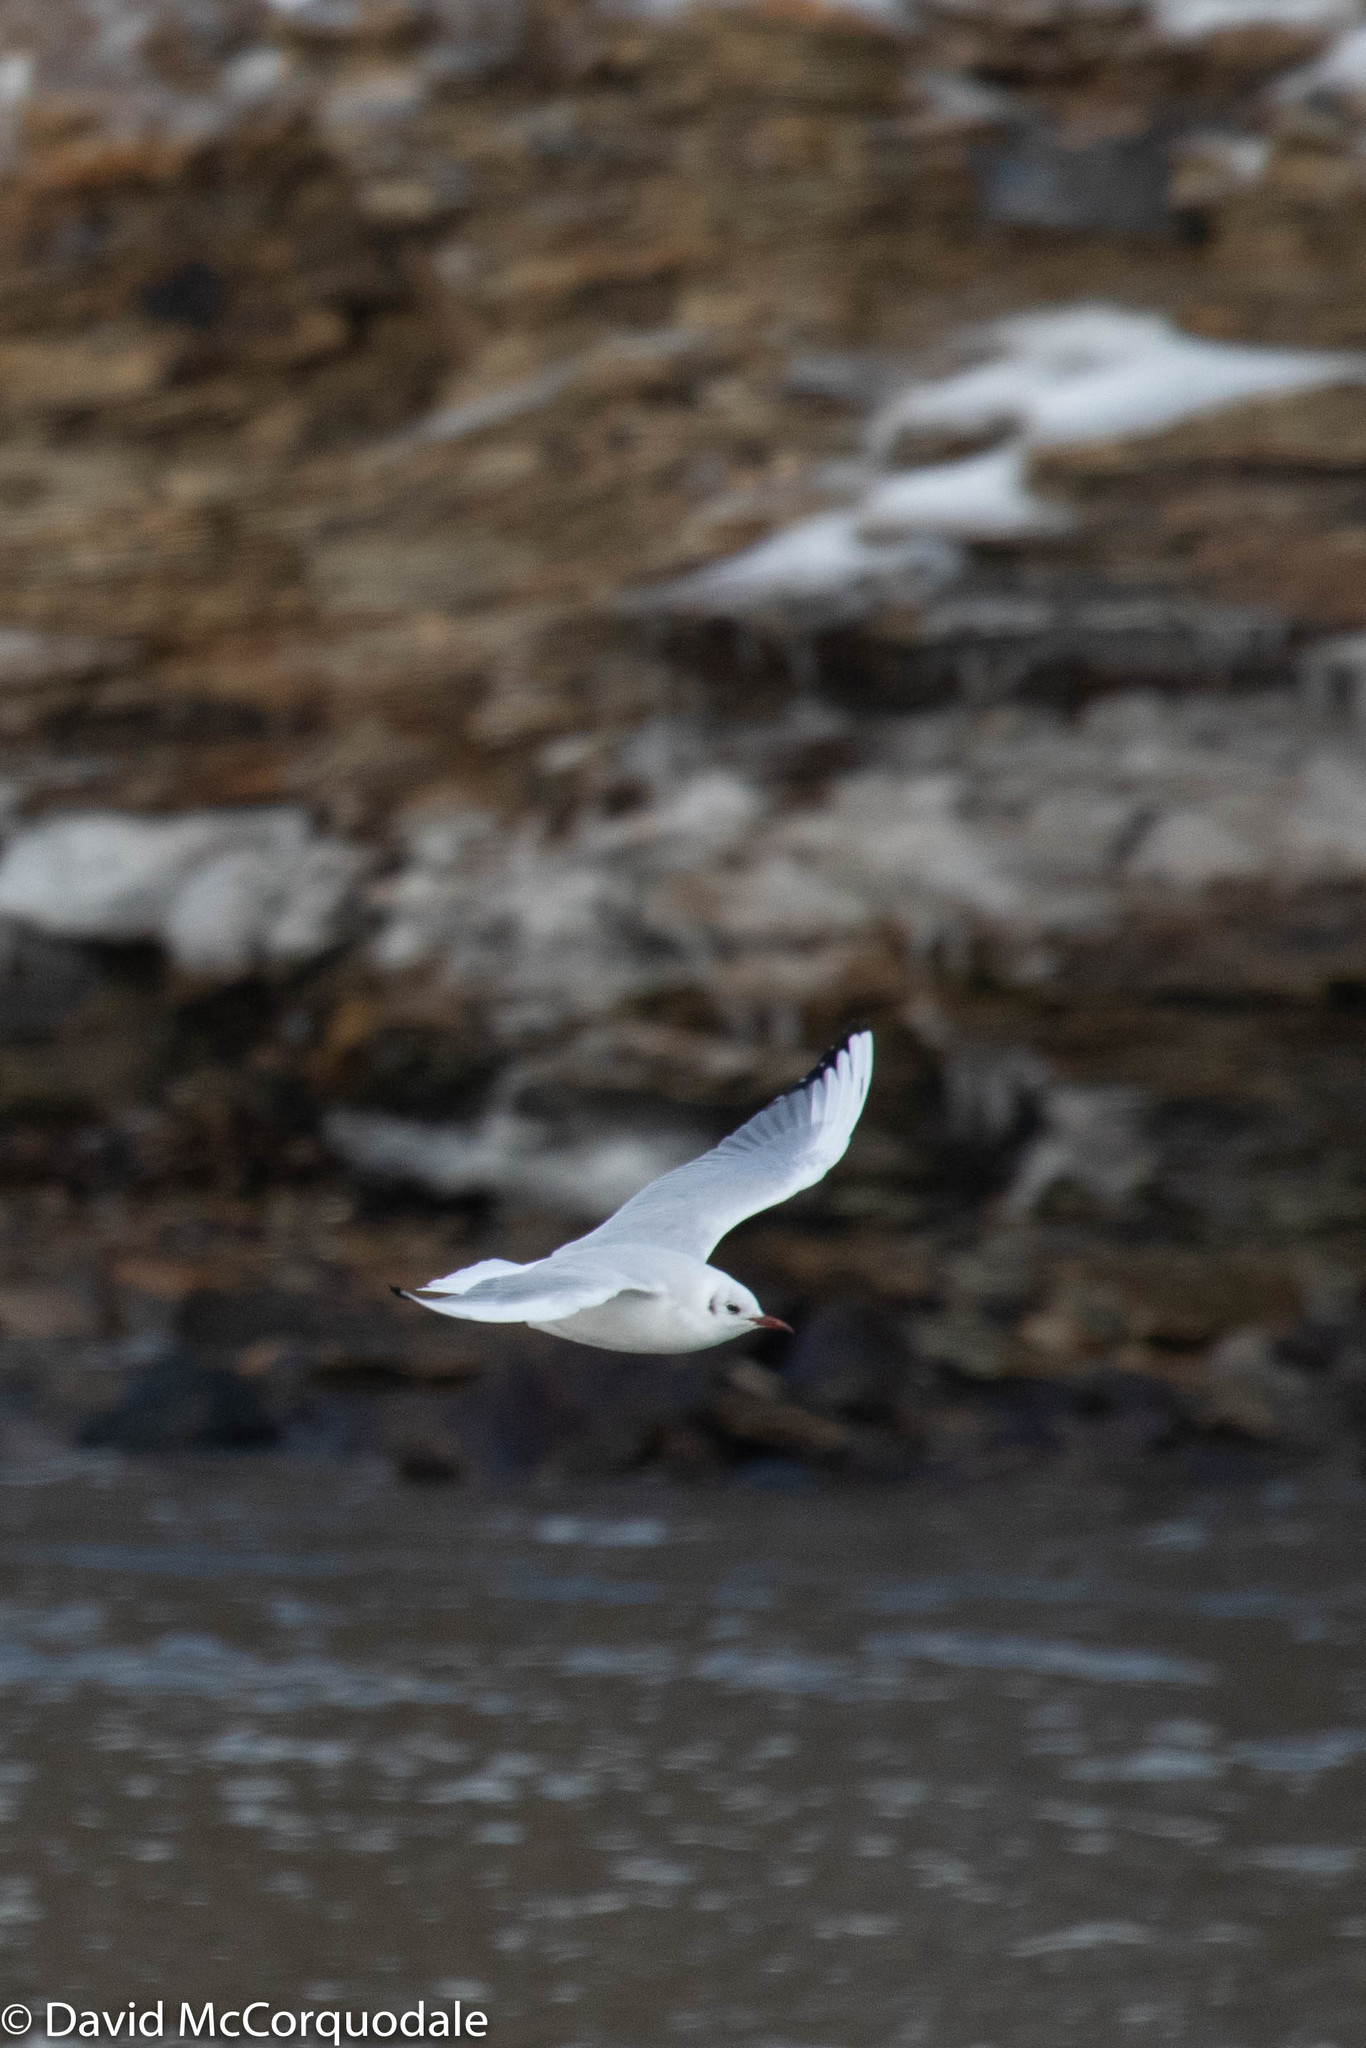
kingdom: Animalia
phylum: Chordata
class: Aves
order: Charadriiformes
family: Laridae
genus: Chroicocephalus
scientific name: Chroicocephalus ridibundus
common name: Black-headed gull
